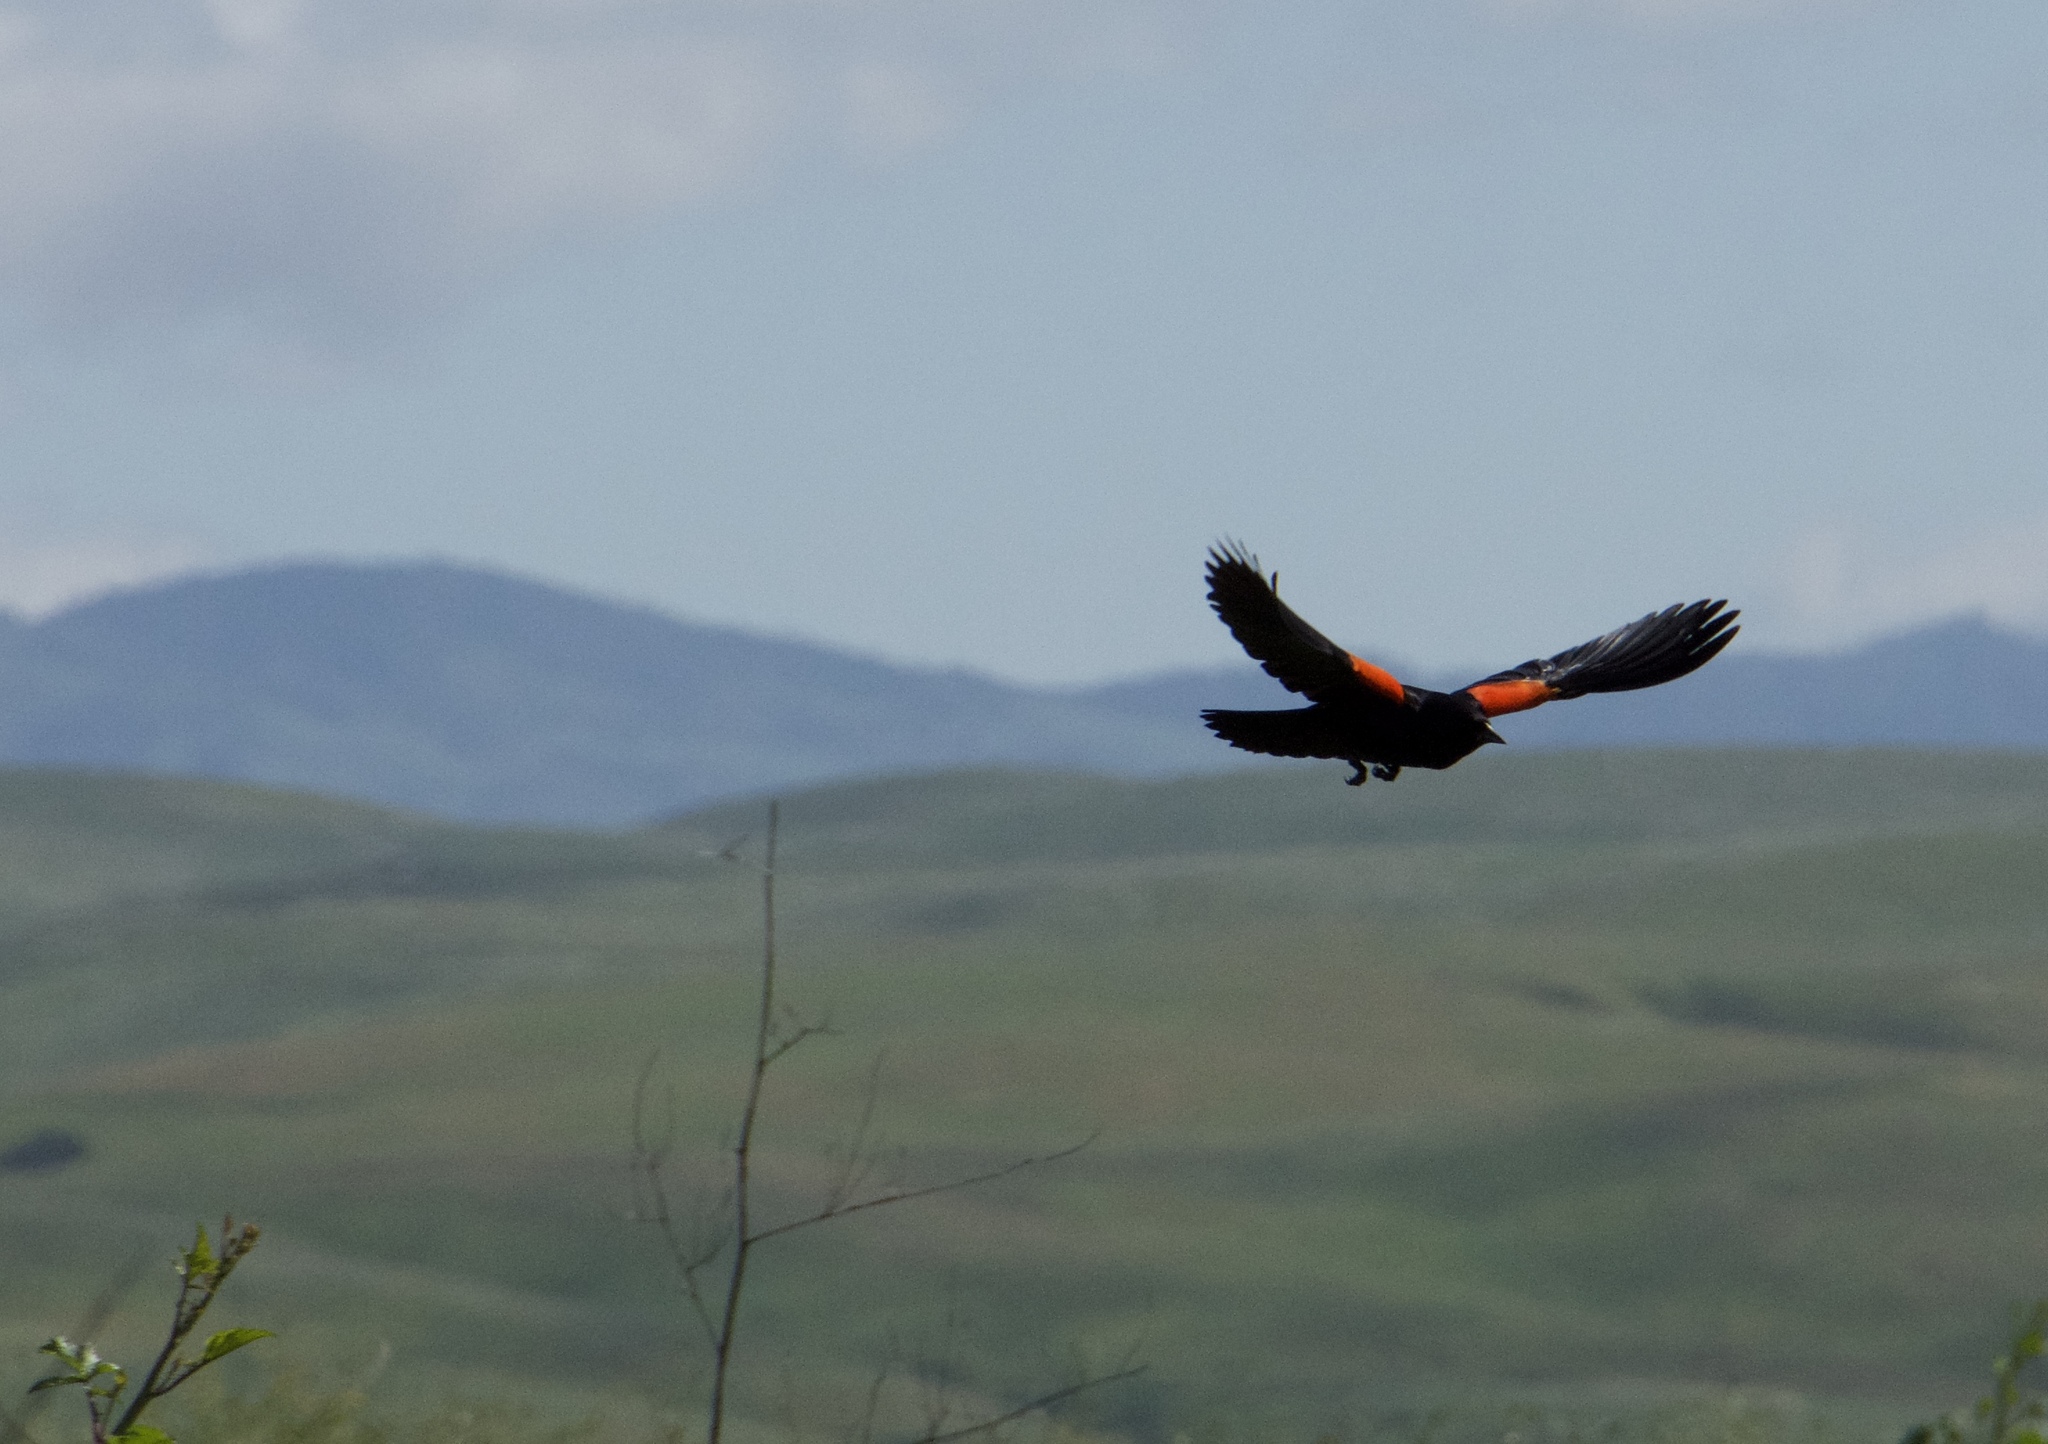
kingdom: Animalia
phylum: Chordata
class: Aves
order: Passeriformes
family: Icteridae
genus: Agelaius
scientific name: Agelaius phoeniceus
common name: Red-winged blackbird
